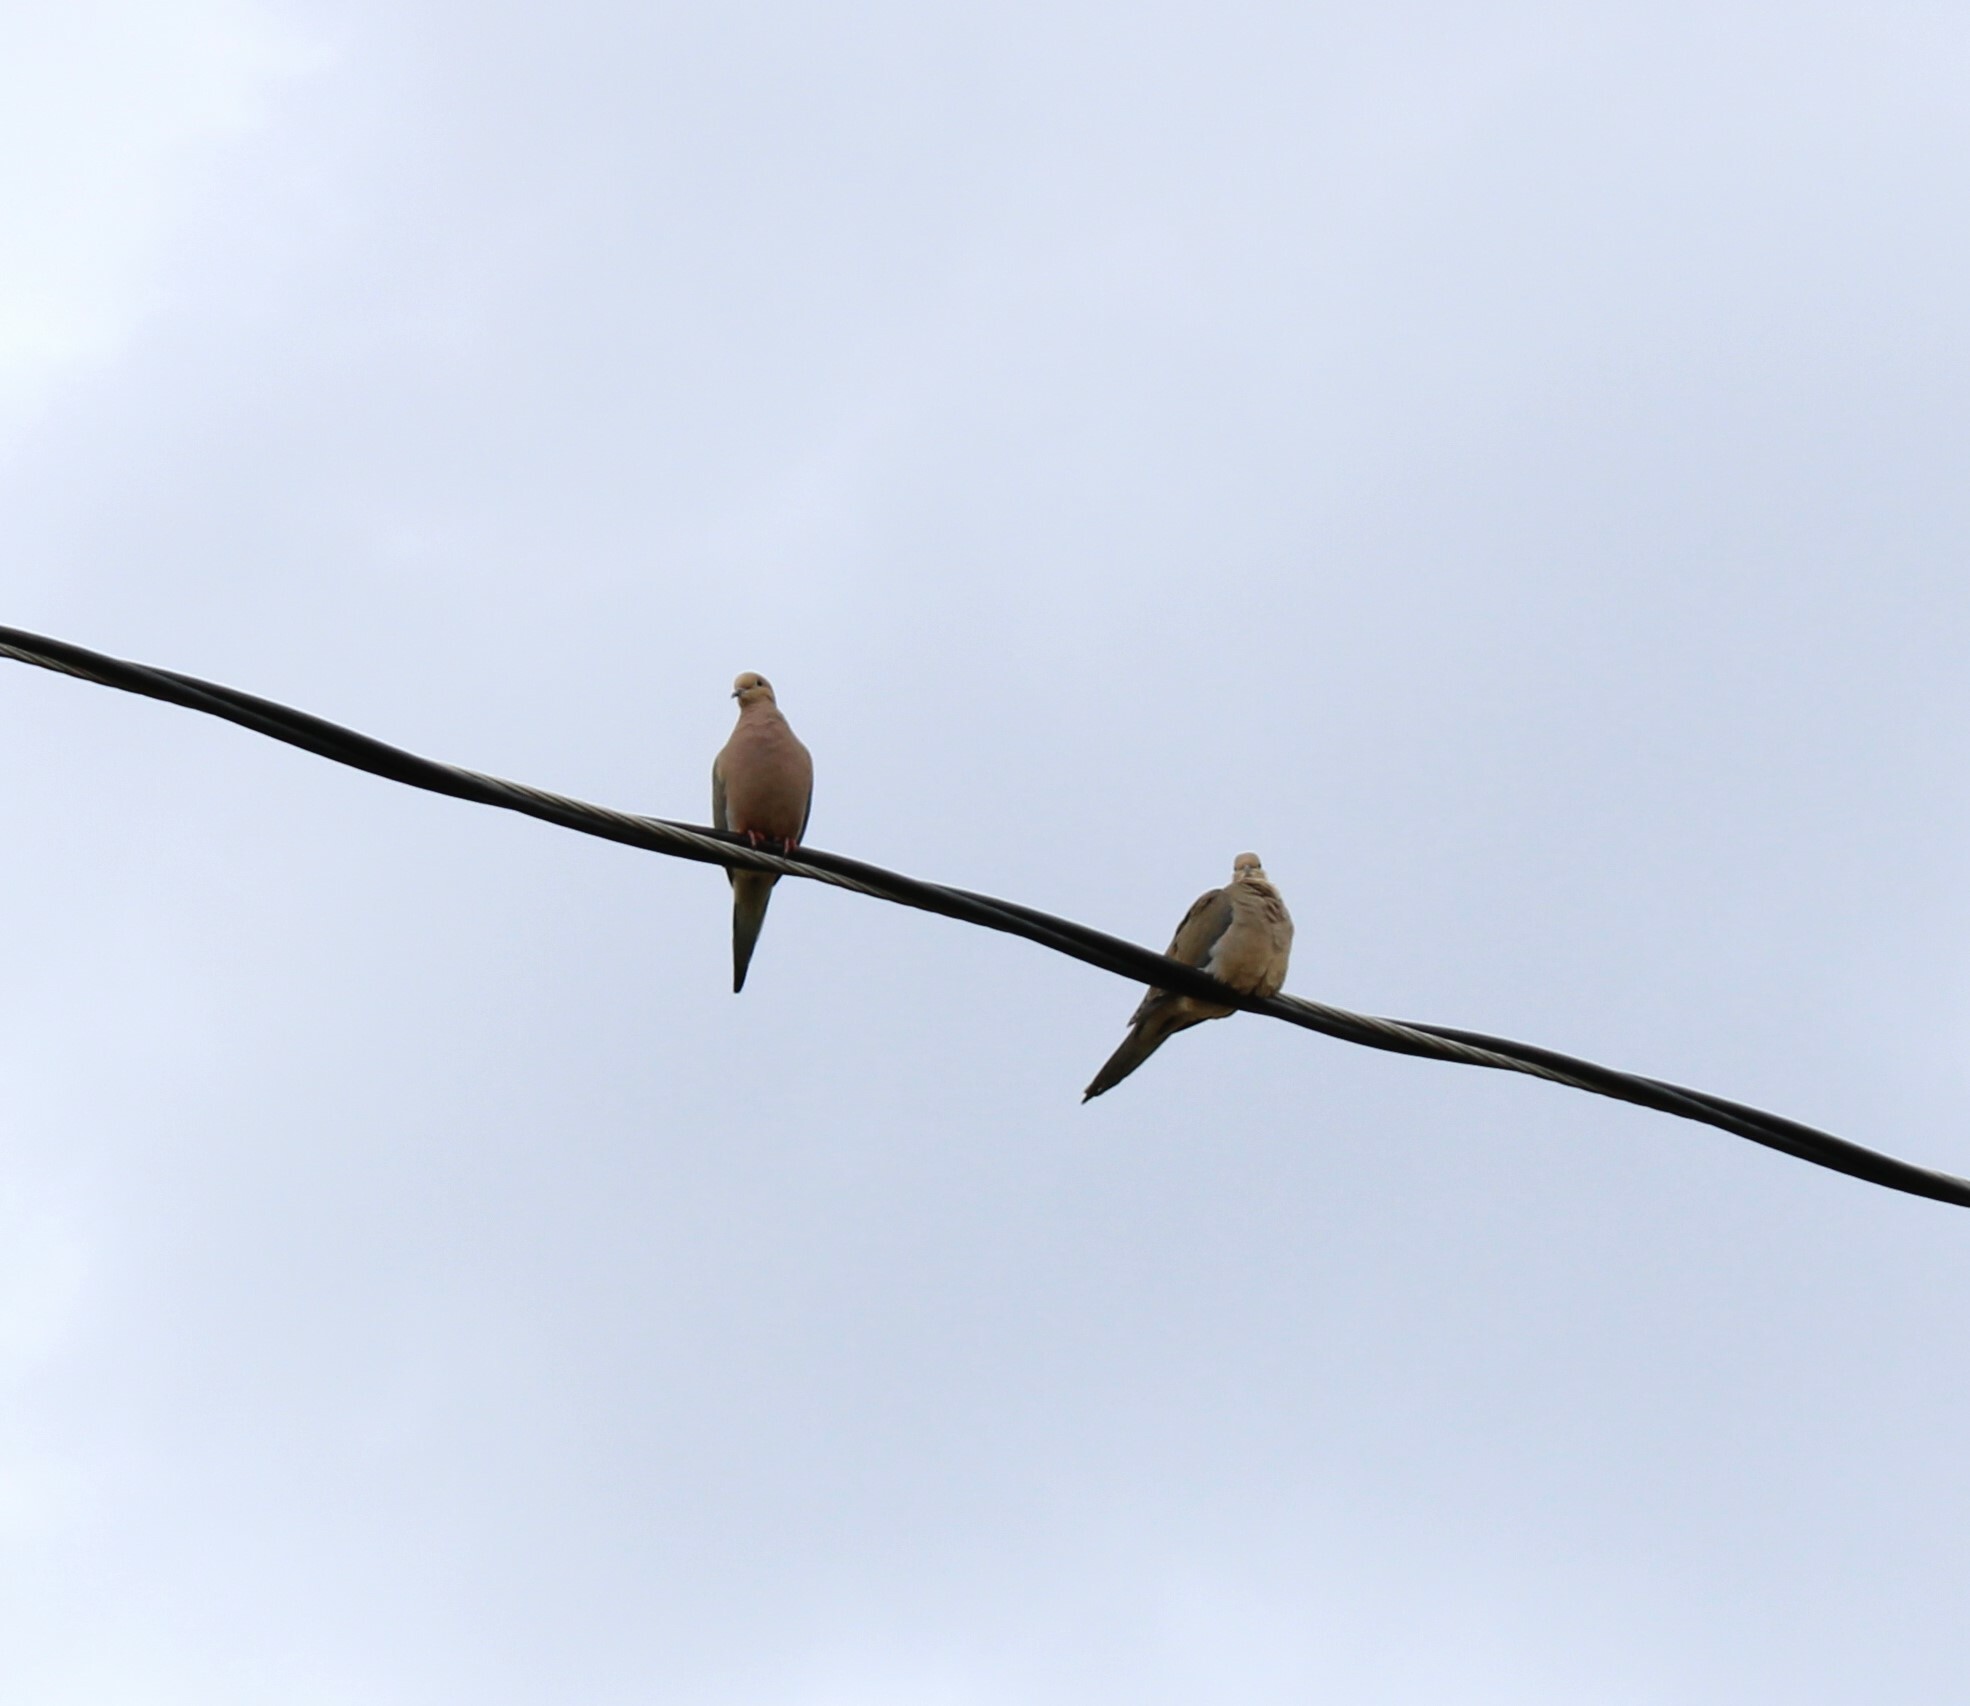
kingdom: Animalia
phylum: Chordata
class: Aves
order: Columbiformes
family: Columbidae
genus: Zenaida
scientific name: Zenaida macroura
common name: Mourning dove
